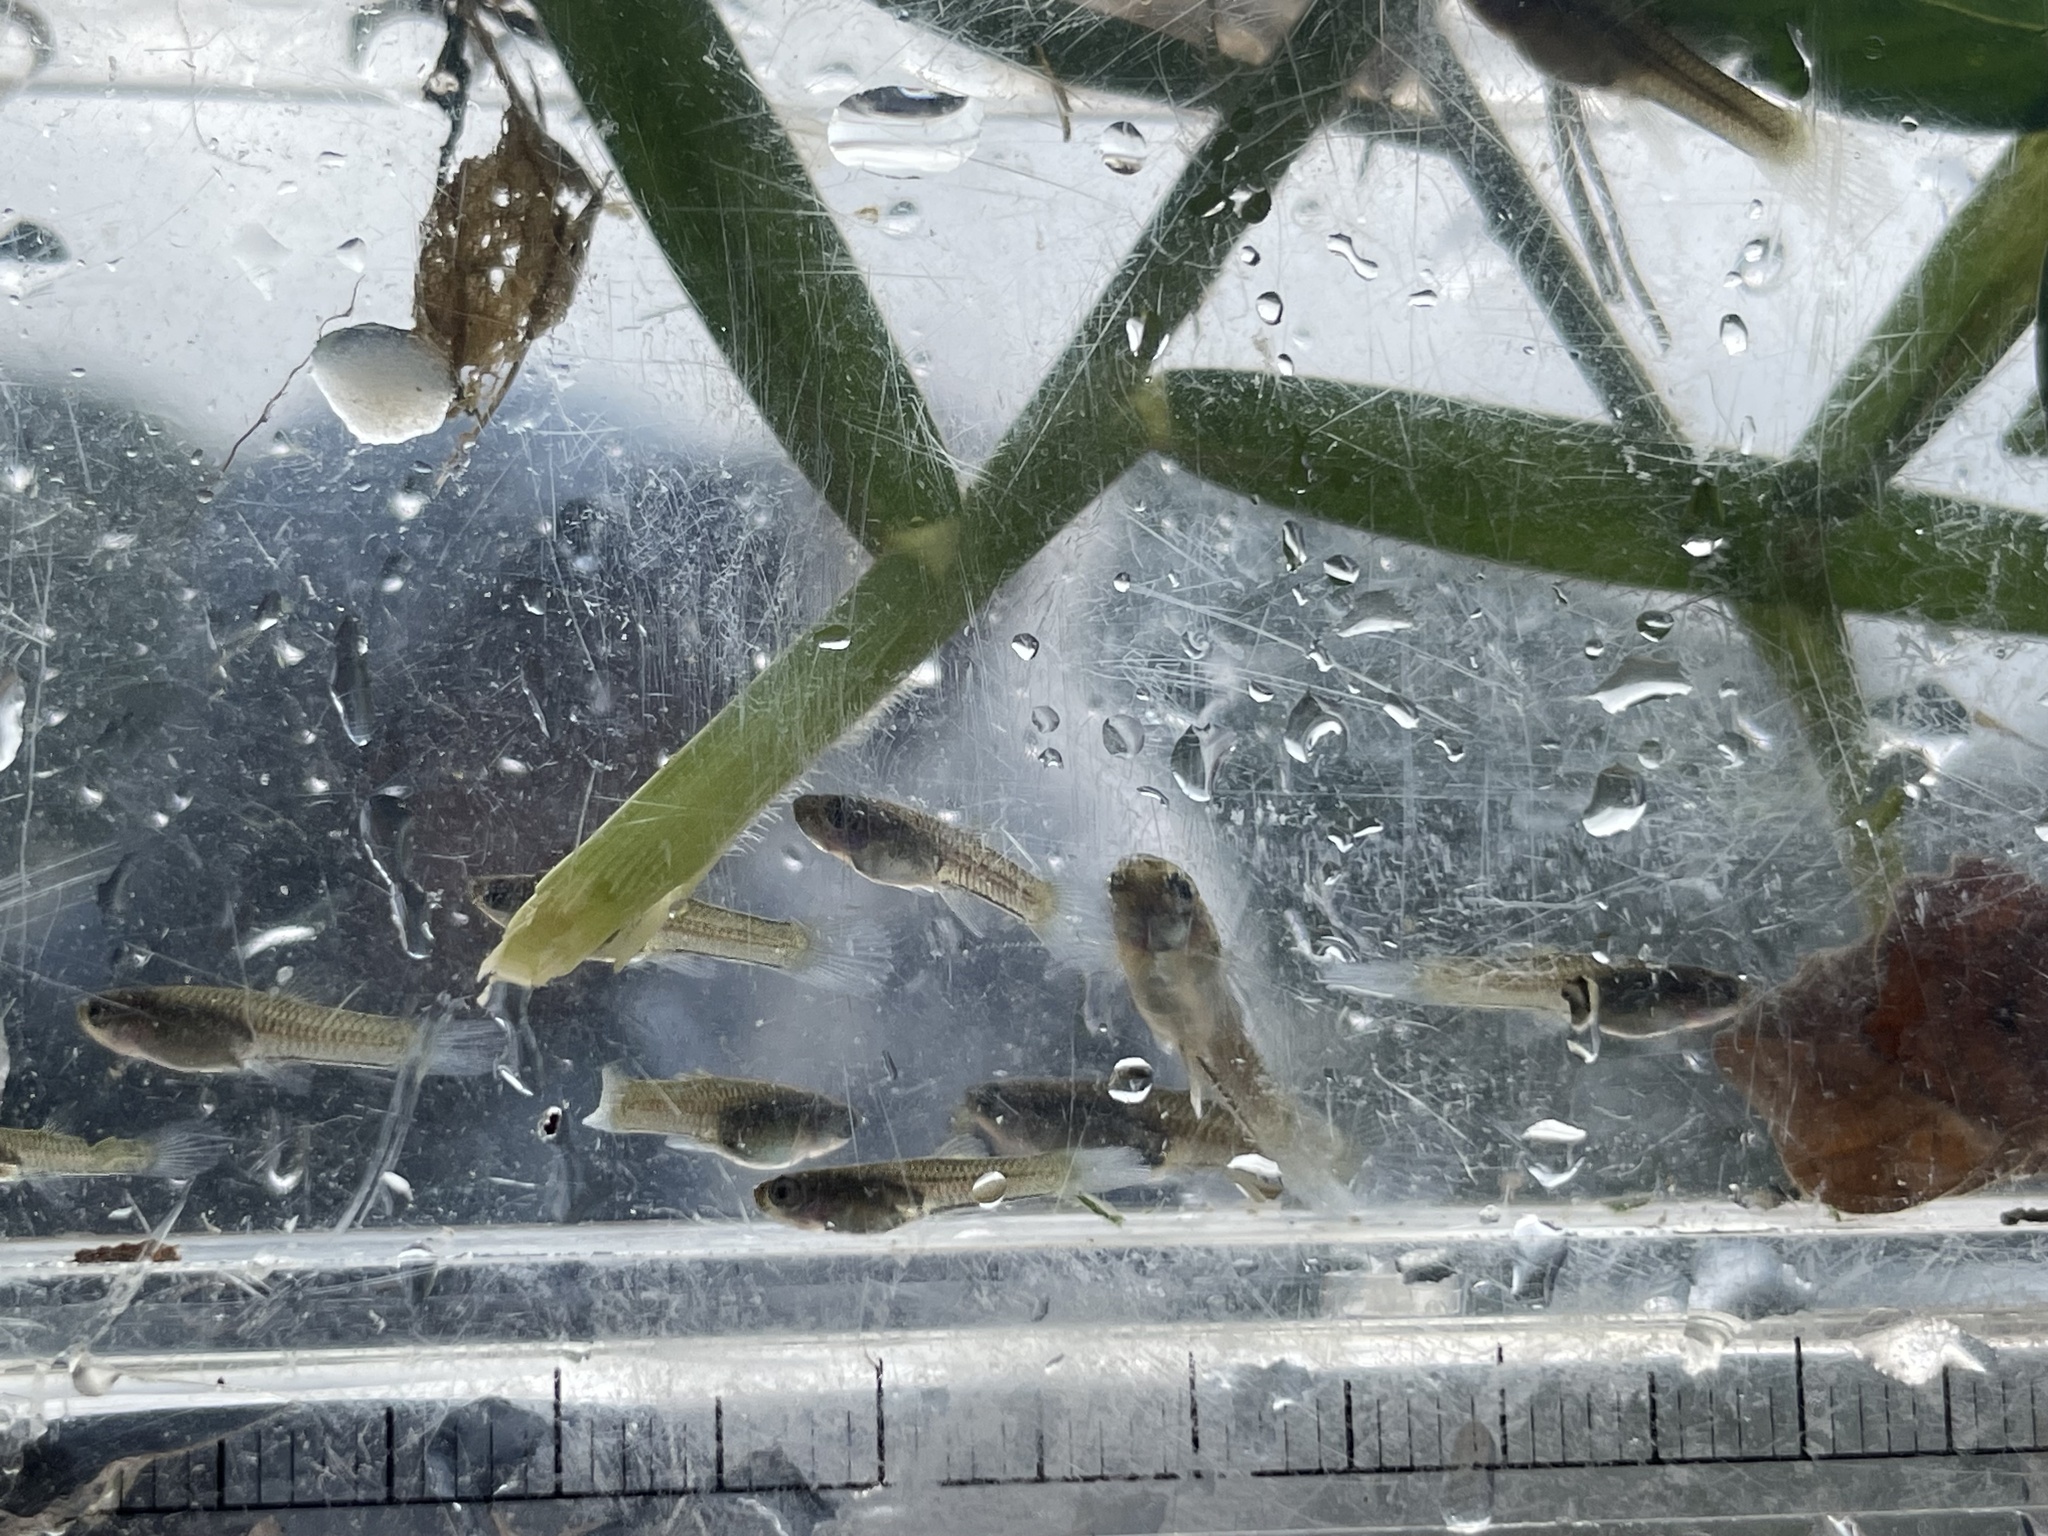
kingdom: Animalia
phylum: Chordata
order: Cyprinodontiformes
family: Poeciliidae
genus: Poecilia
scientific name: Poecilia reticulata
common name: Guppy
